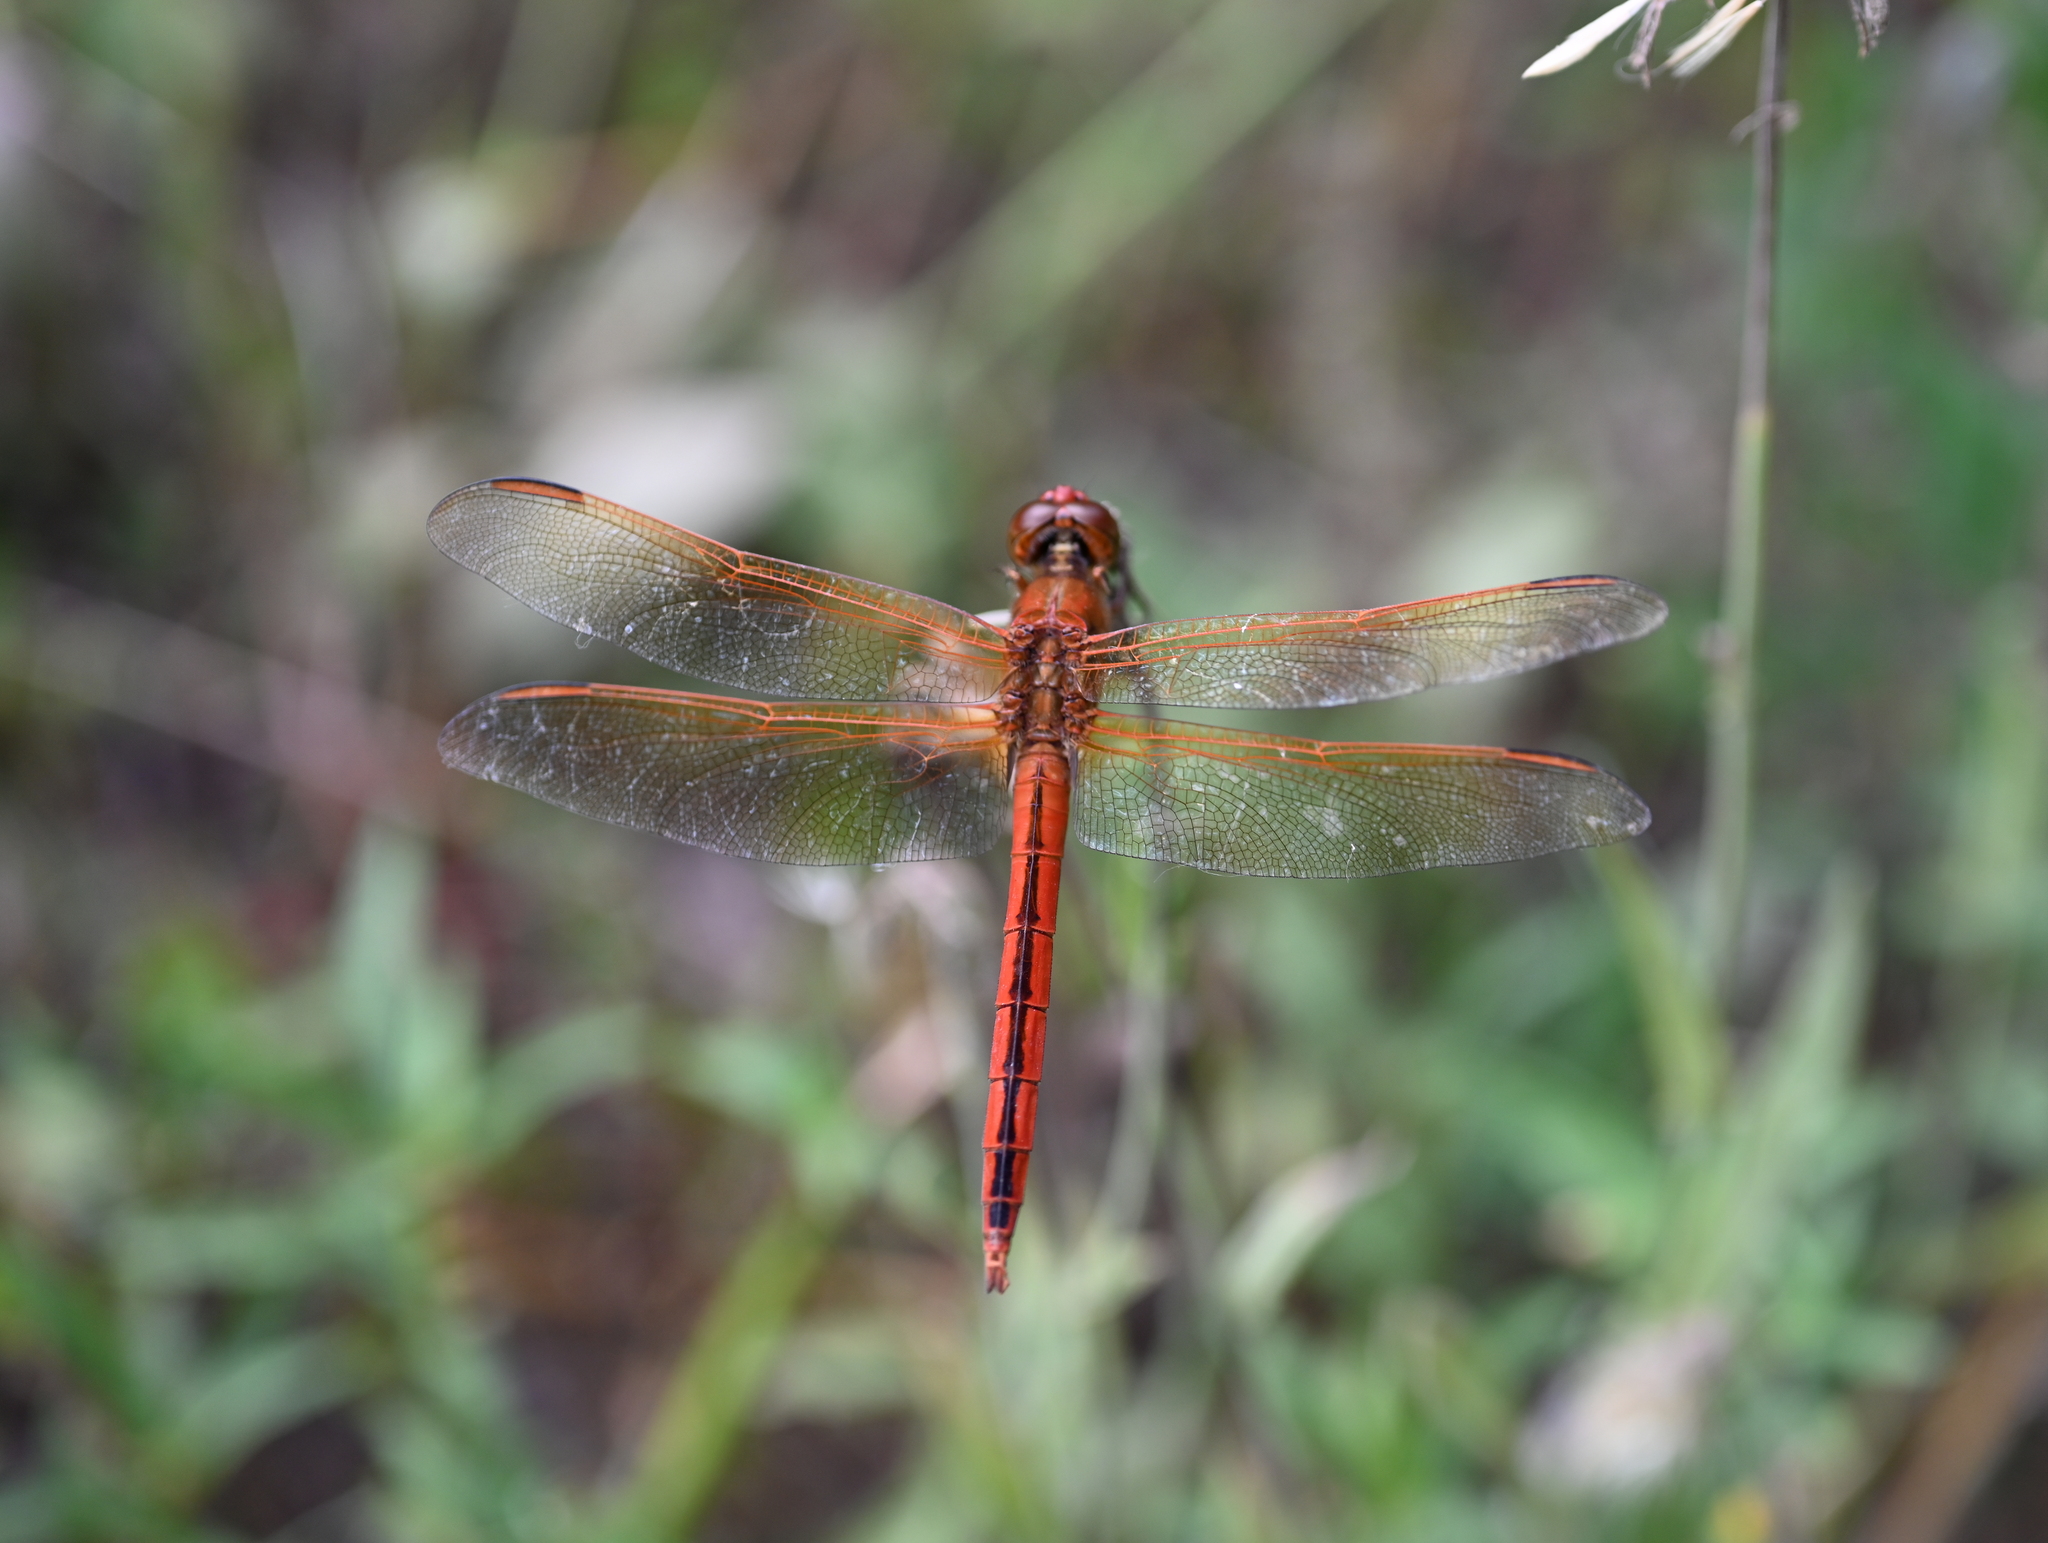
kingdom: Animalia
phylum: Arthropoda
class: Insecta
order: Odonata
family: Libellulidae
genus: Libellula
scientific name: Libellula needhami
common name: Needham's skimmer
